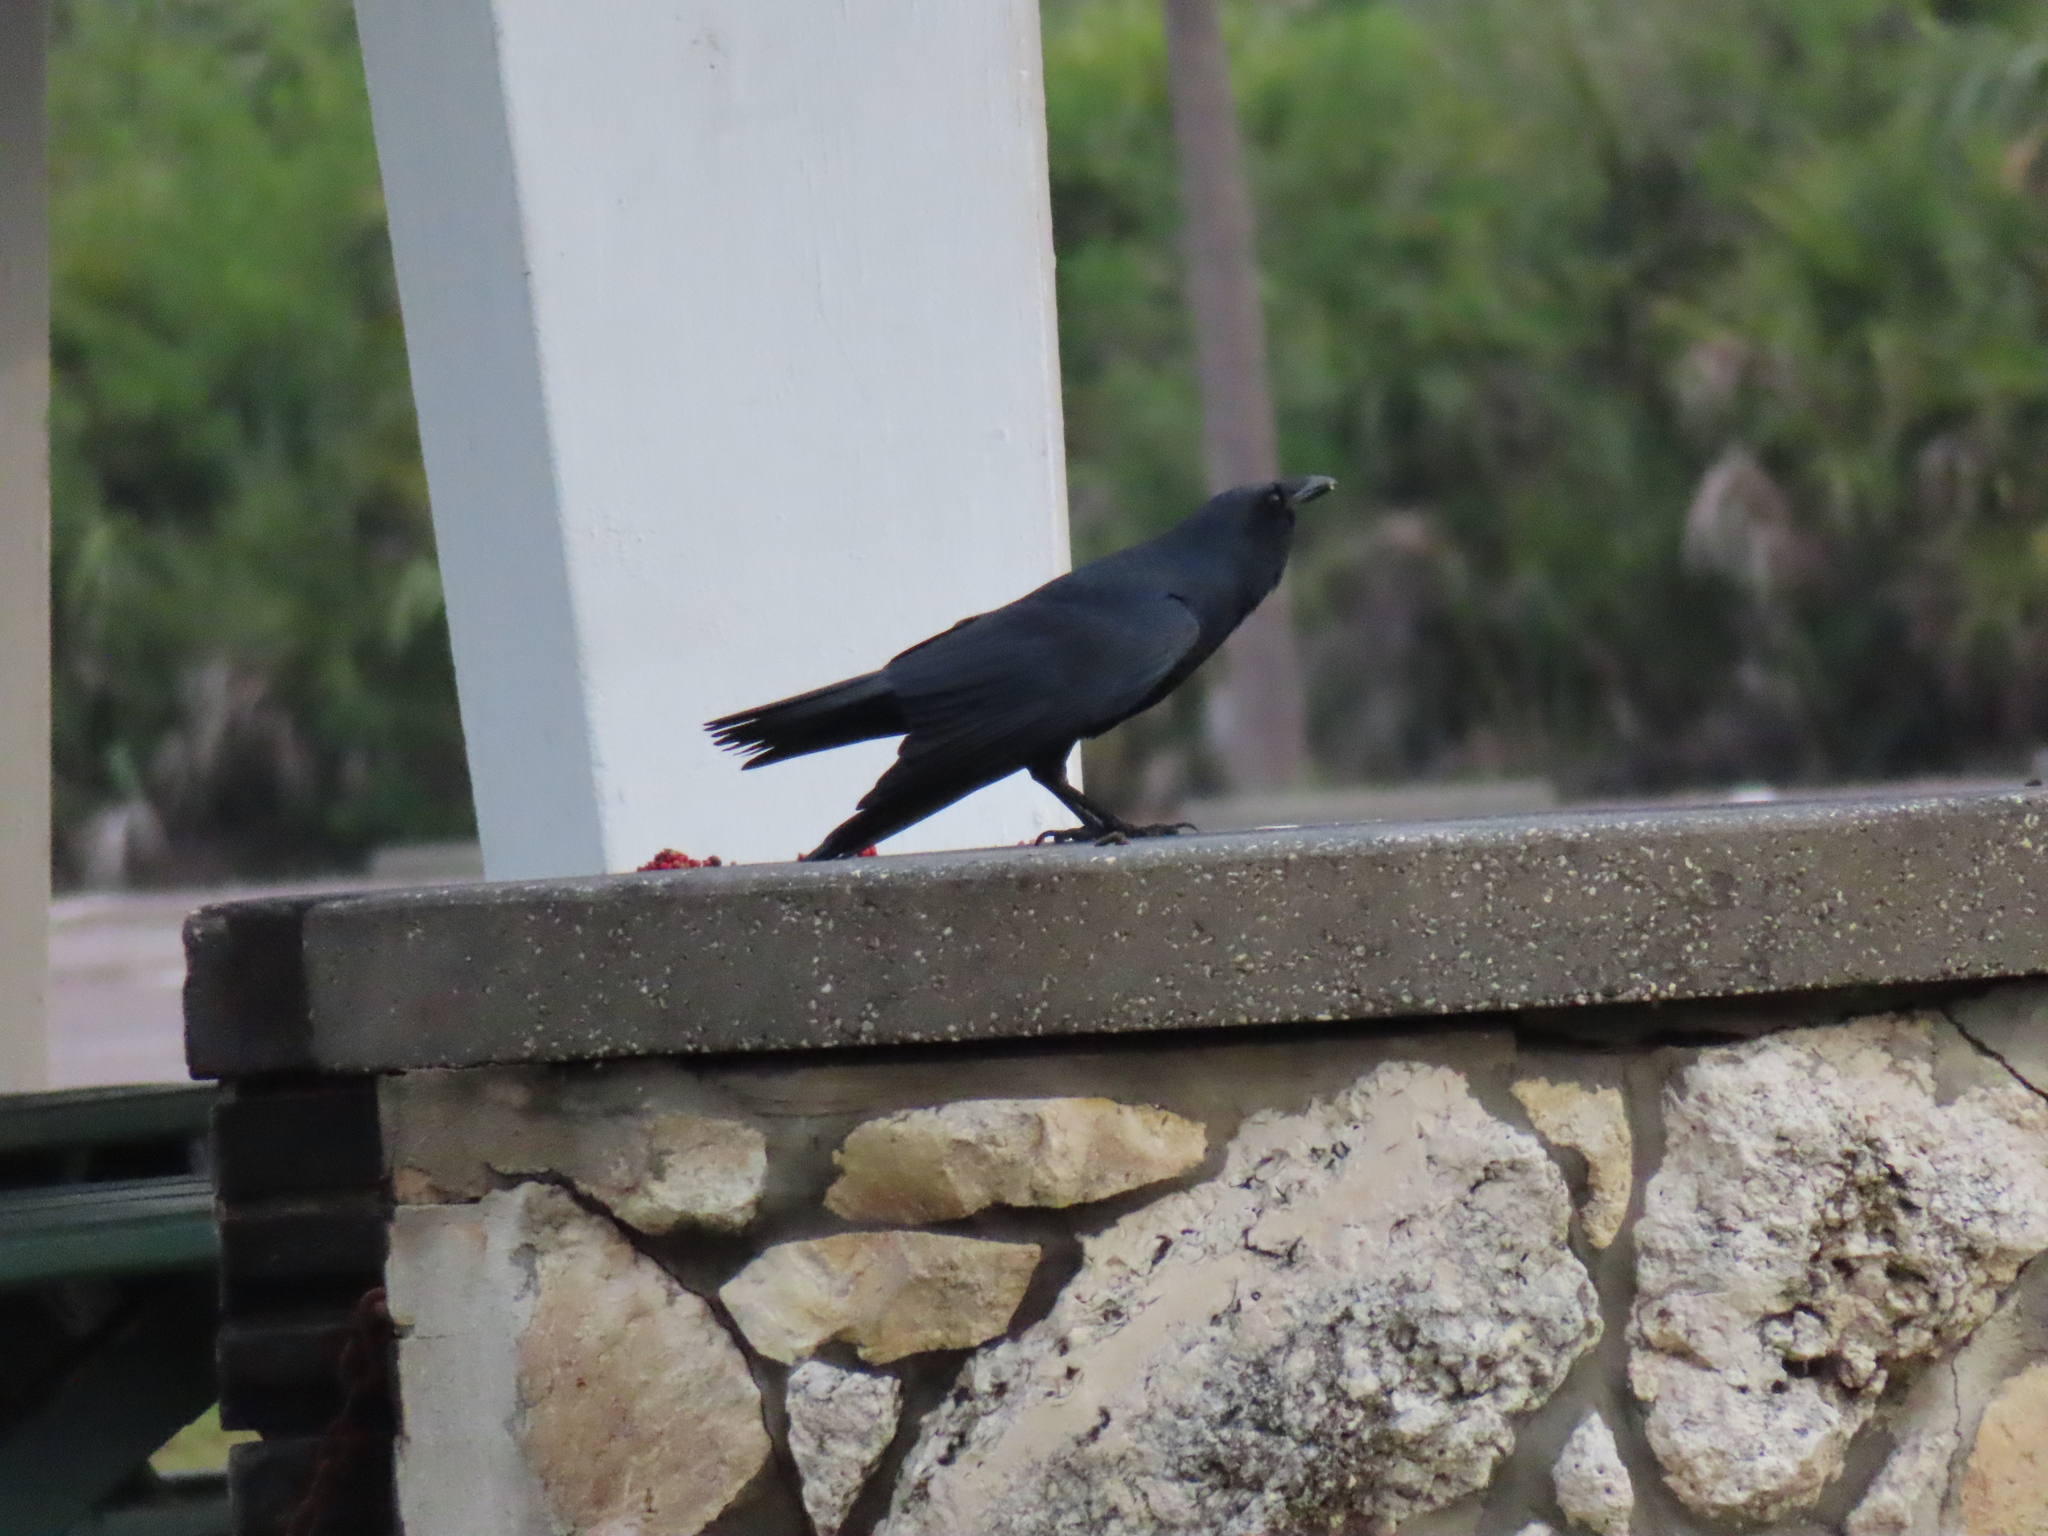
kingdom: Animalia
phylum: Chordata
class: Aves
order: Passeriformes
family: Corvidae
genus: Corvus
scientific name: Corvus ossifragus
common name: Fish crow
